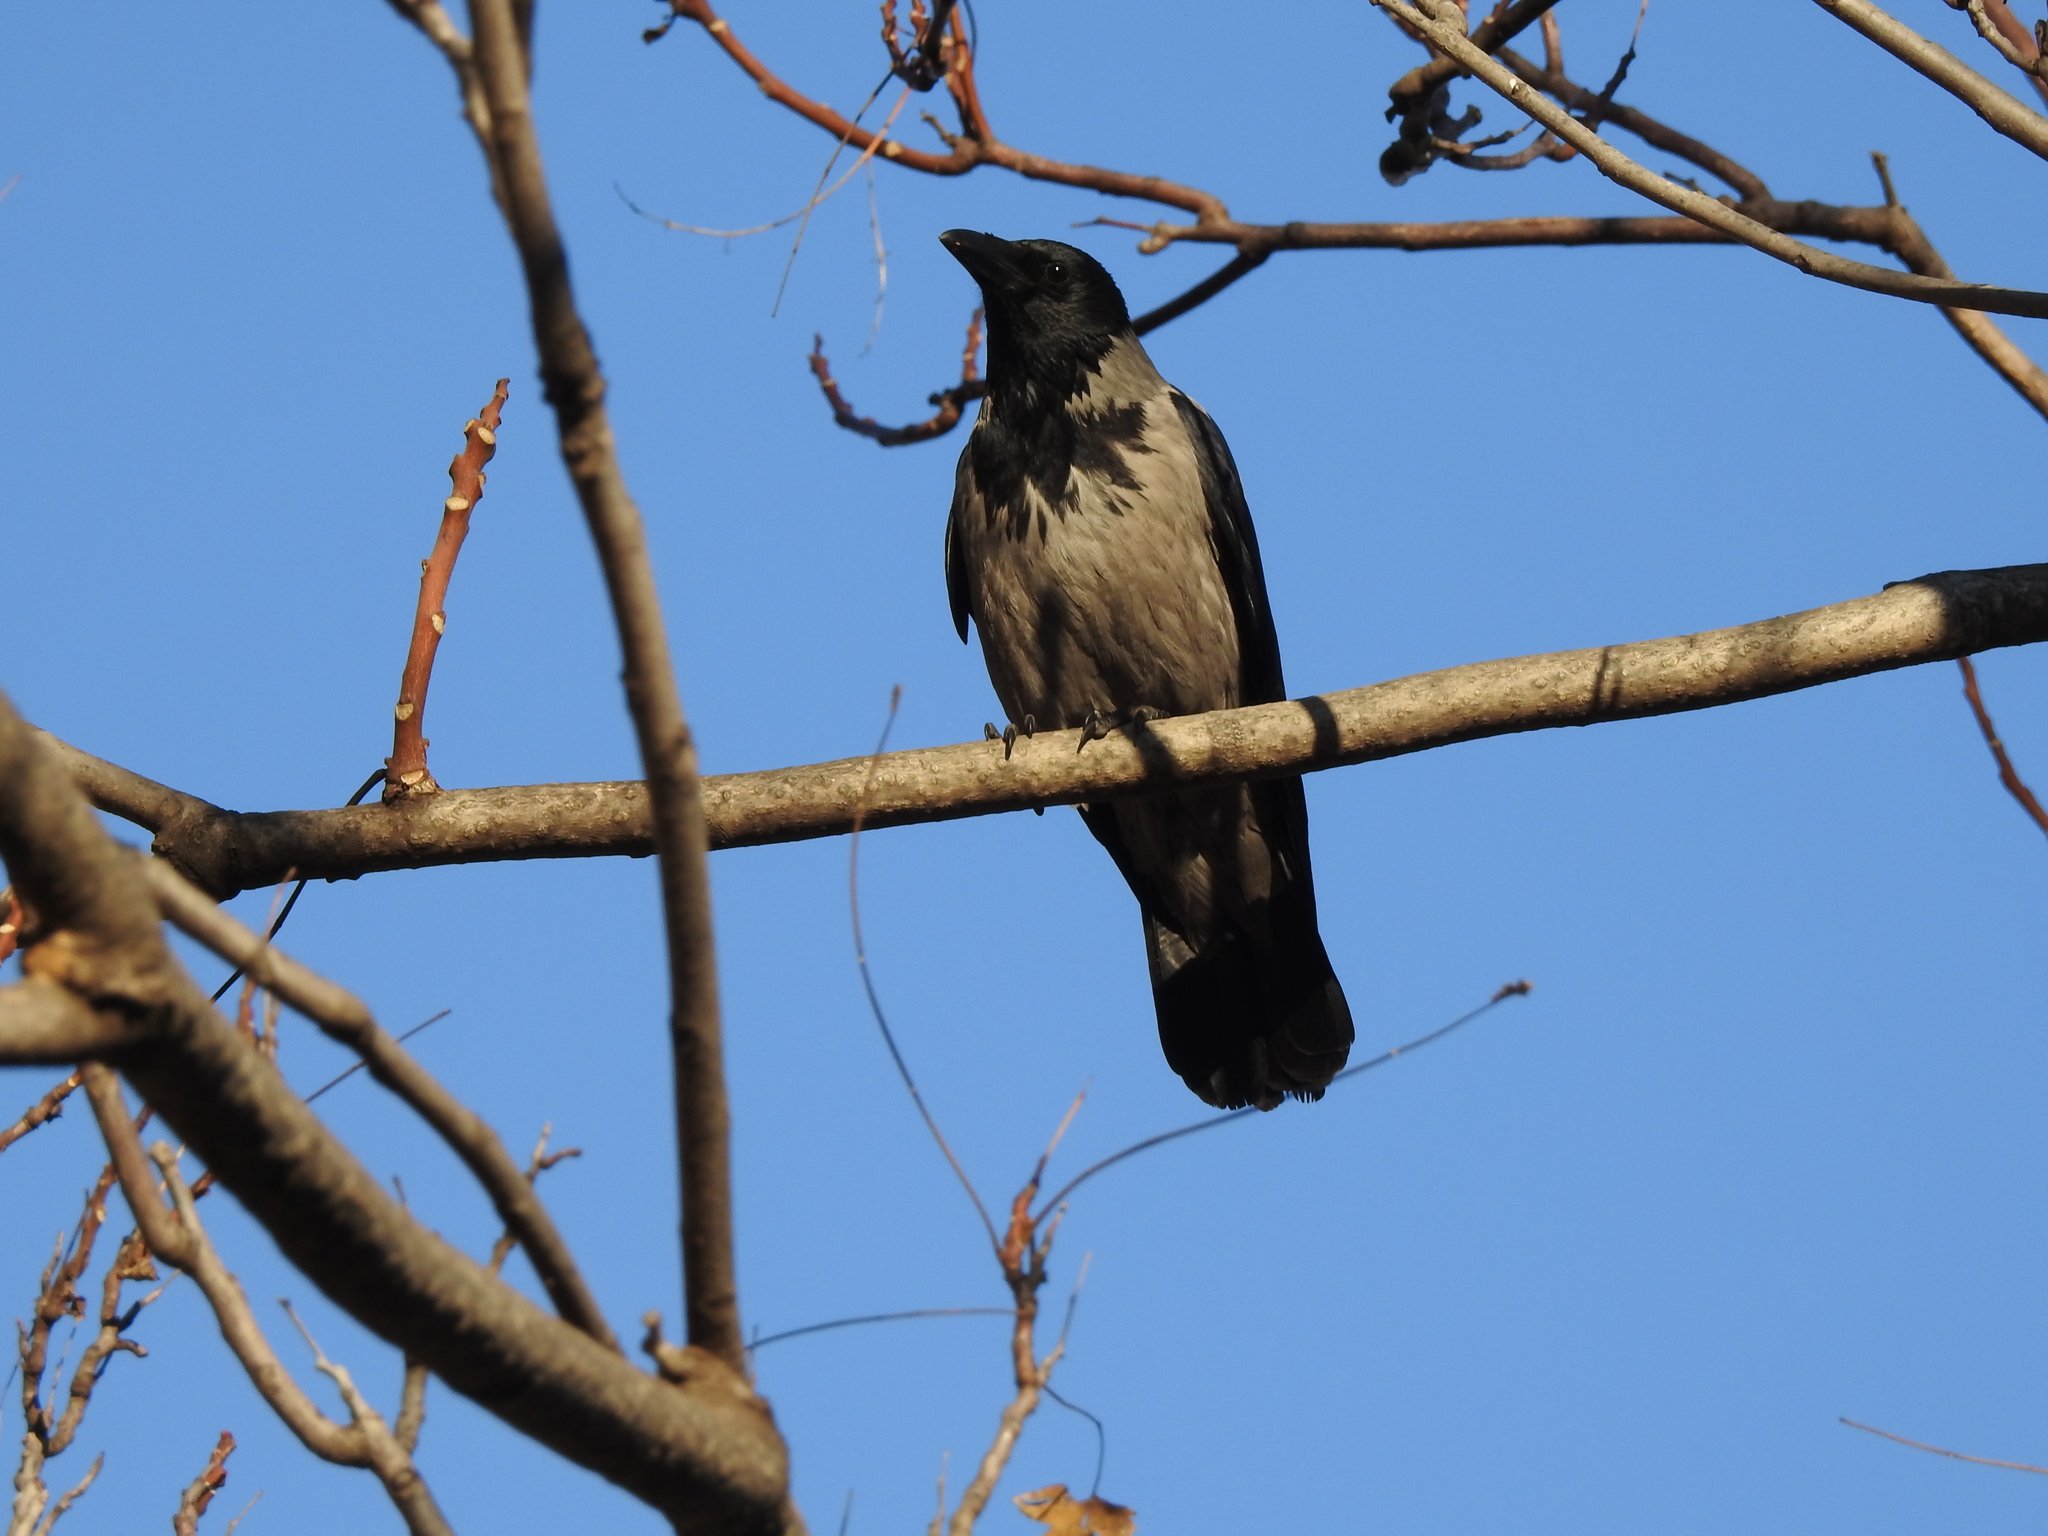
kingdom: Animalia
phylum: Chordata
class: Aves
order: Passeriformes
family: Corvidae
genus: Corvus
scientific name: Corvus cornix
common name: Hooded crow
